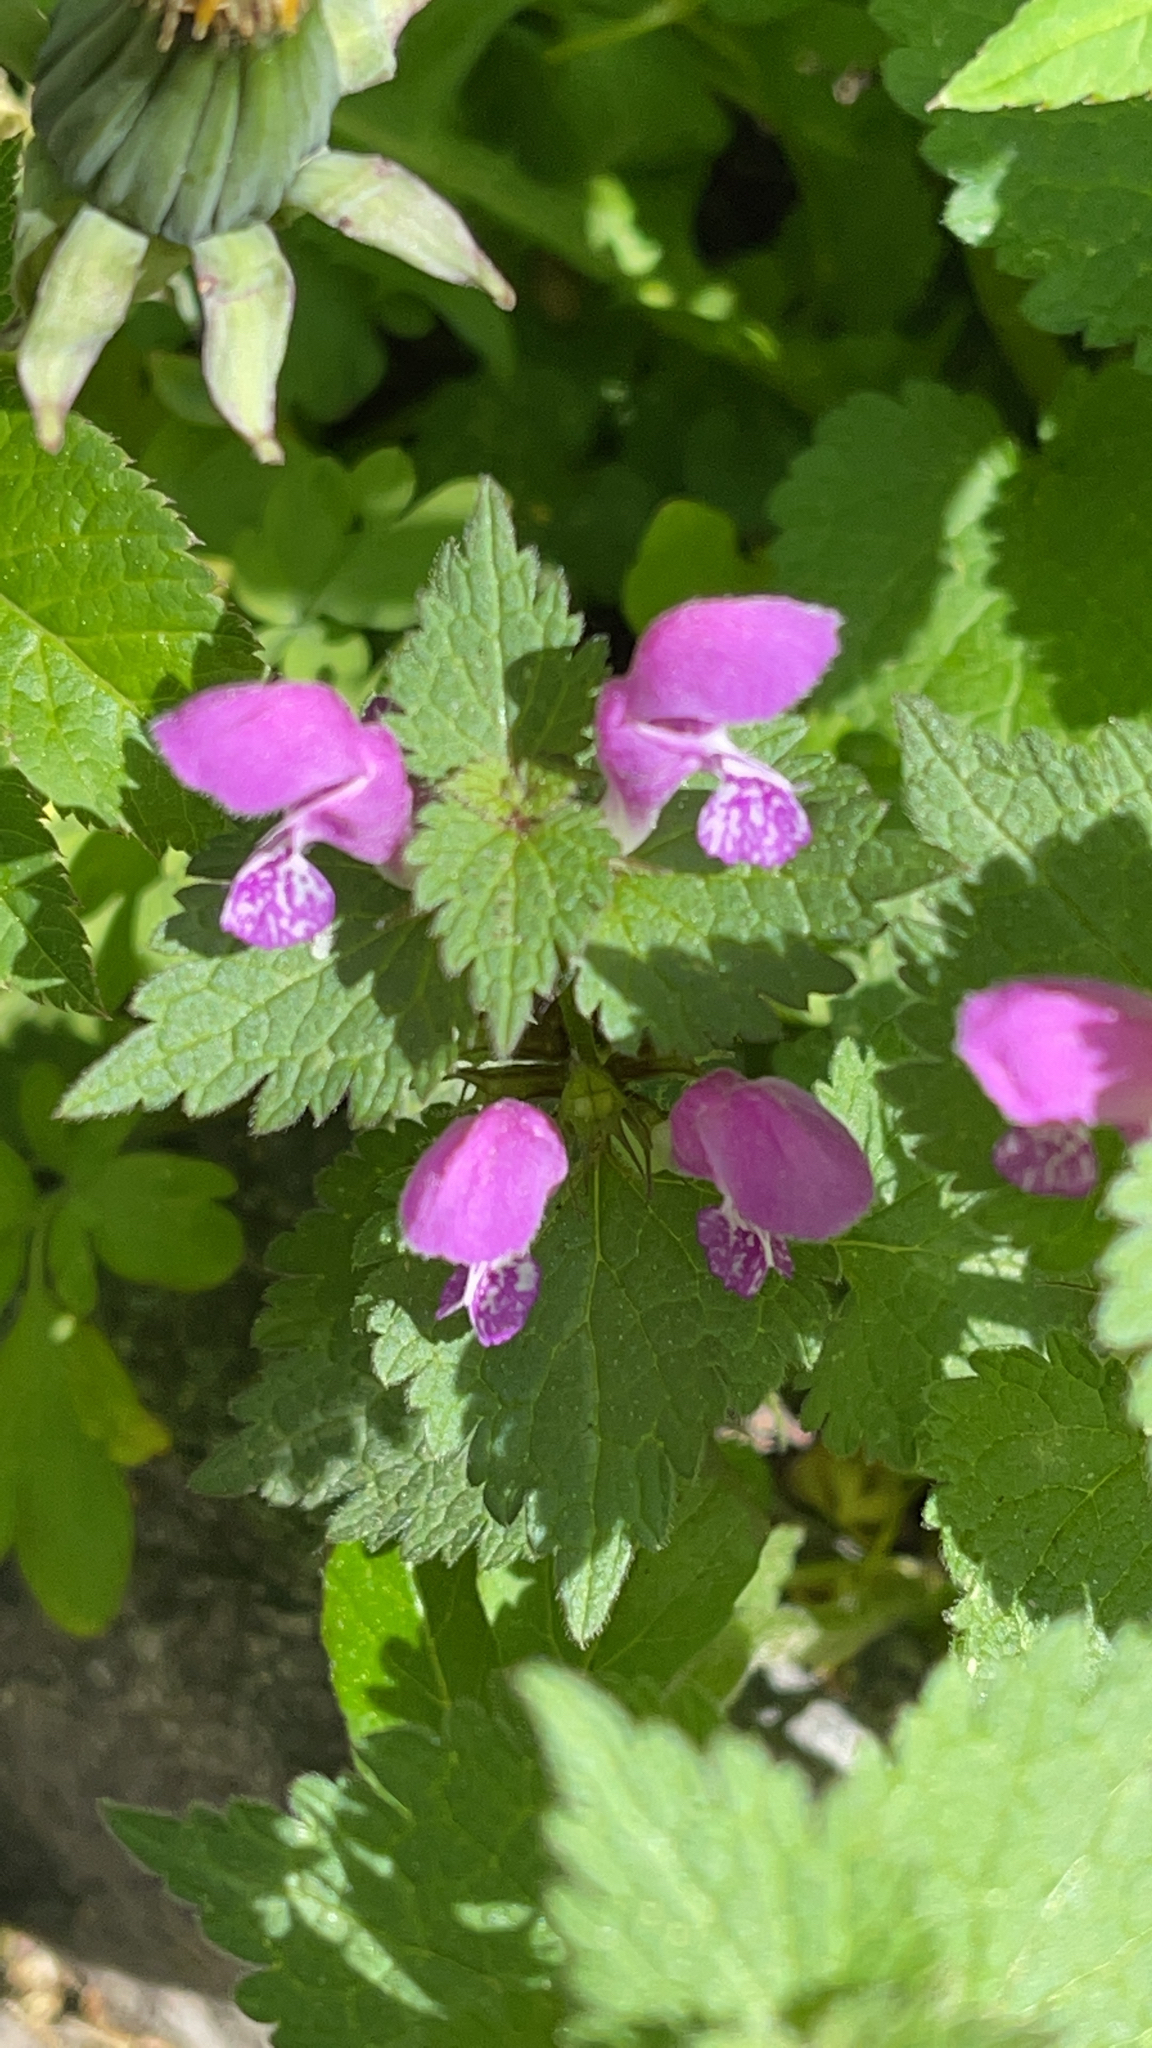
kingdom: Plantae
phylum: Tracheophyta
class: Magnoliopsida
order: Lamiales
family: Lamiaceae
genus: Lamium
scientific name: Lamium maculatum
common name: Spotted dead-nettle
